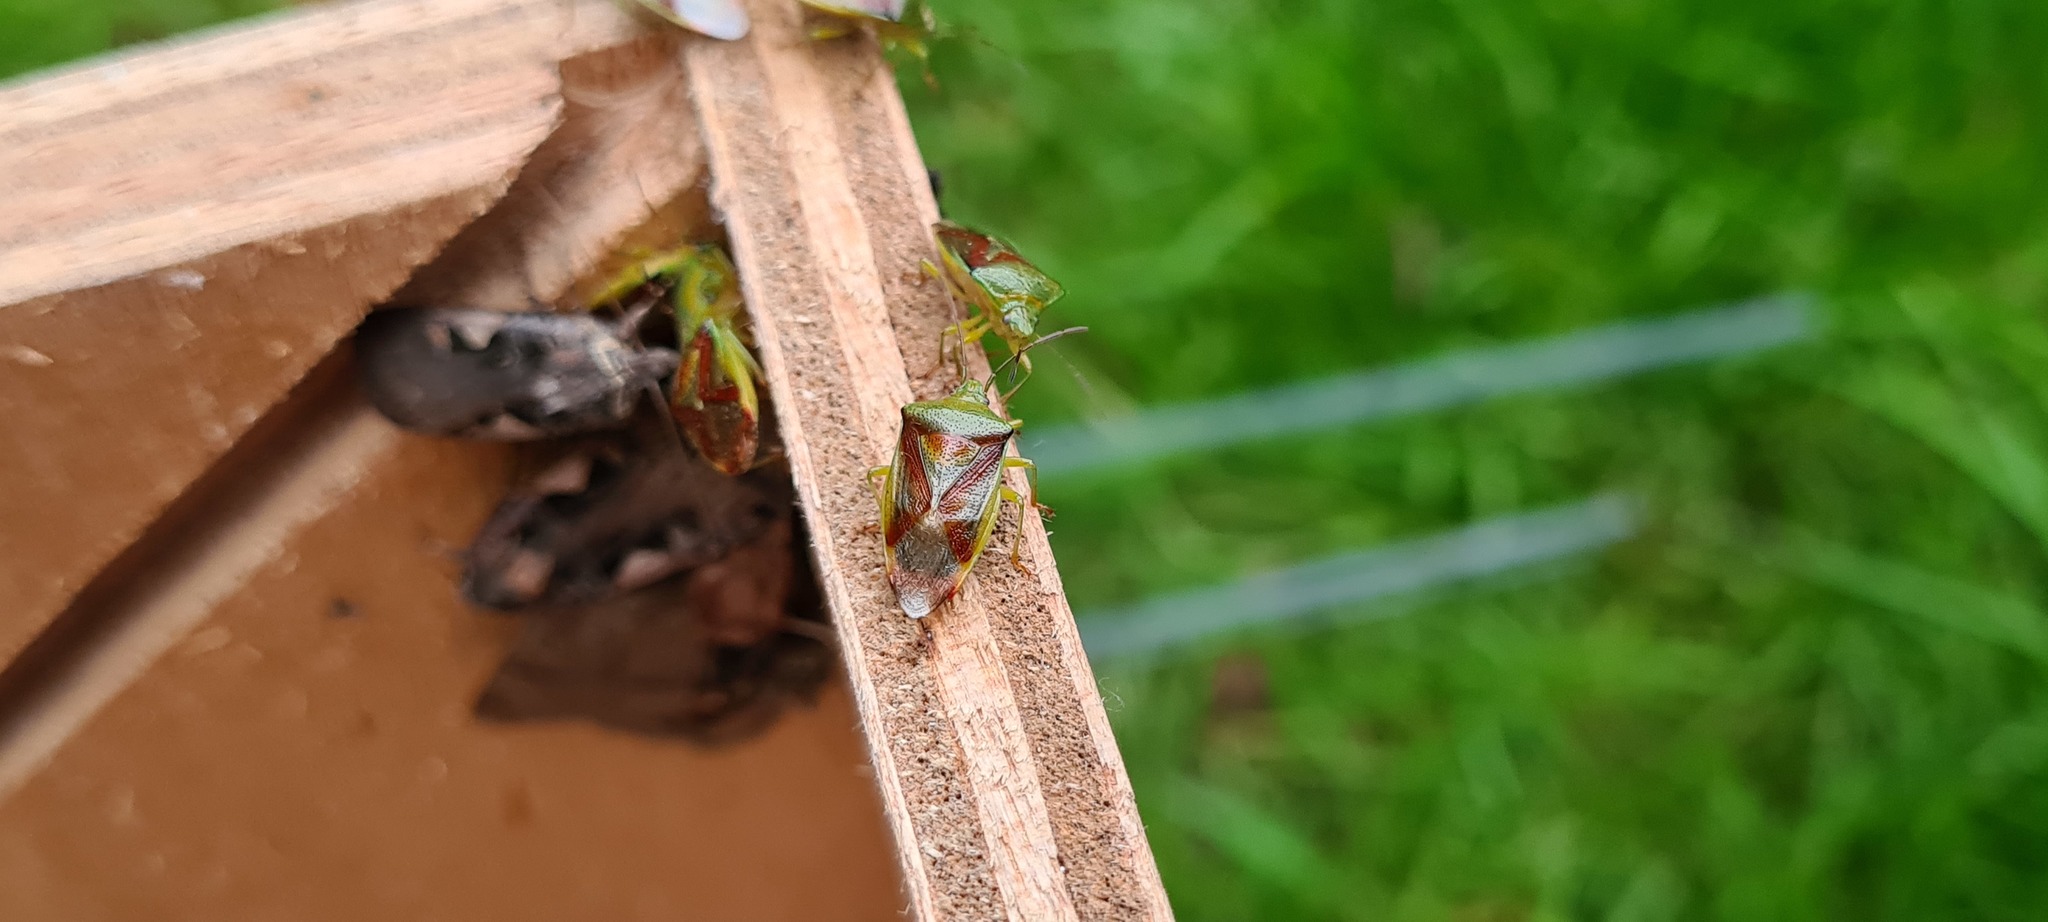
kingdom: Animalia
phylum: Arthropoda
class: Insecta
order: Hemiptera
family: Acanthosomatidae
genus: Elasmostethus
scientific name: Elasmostethus
